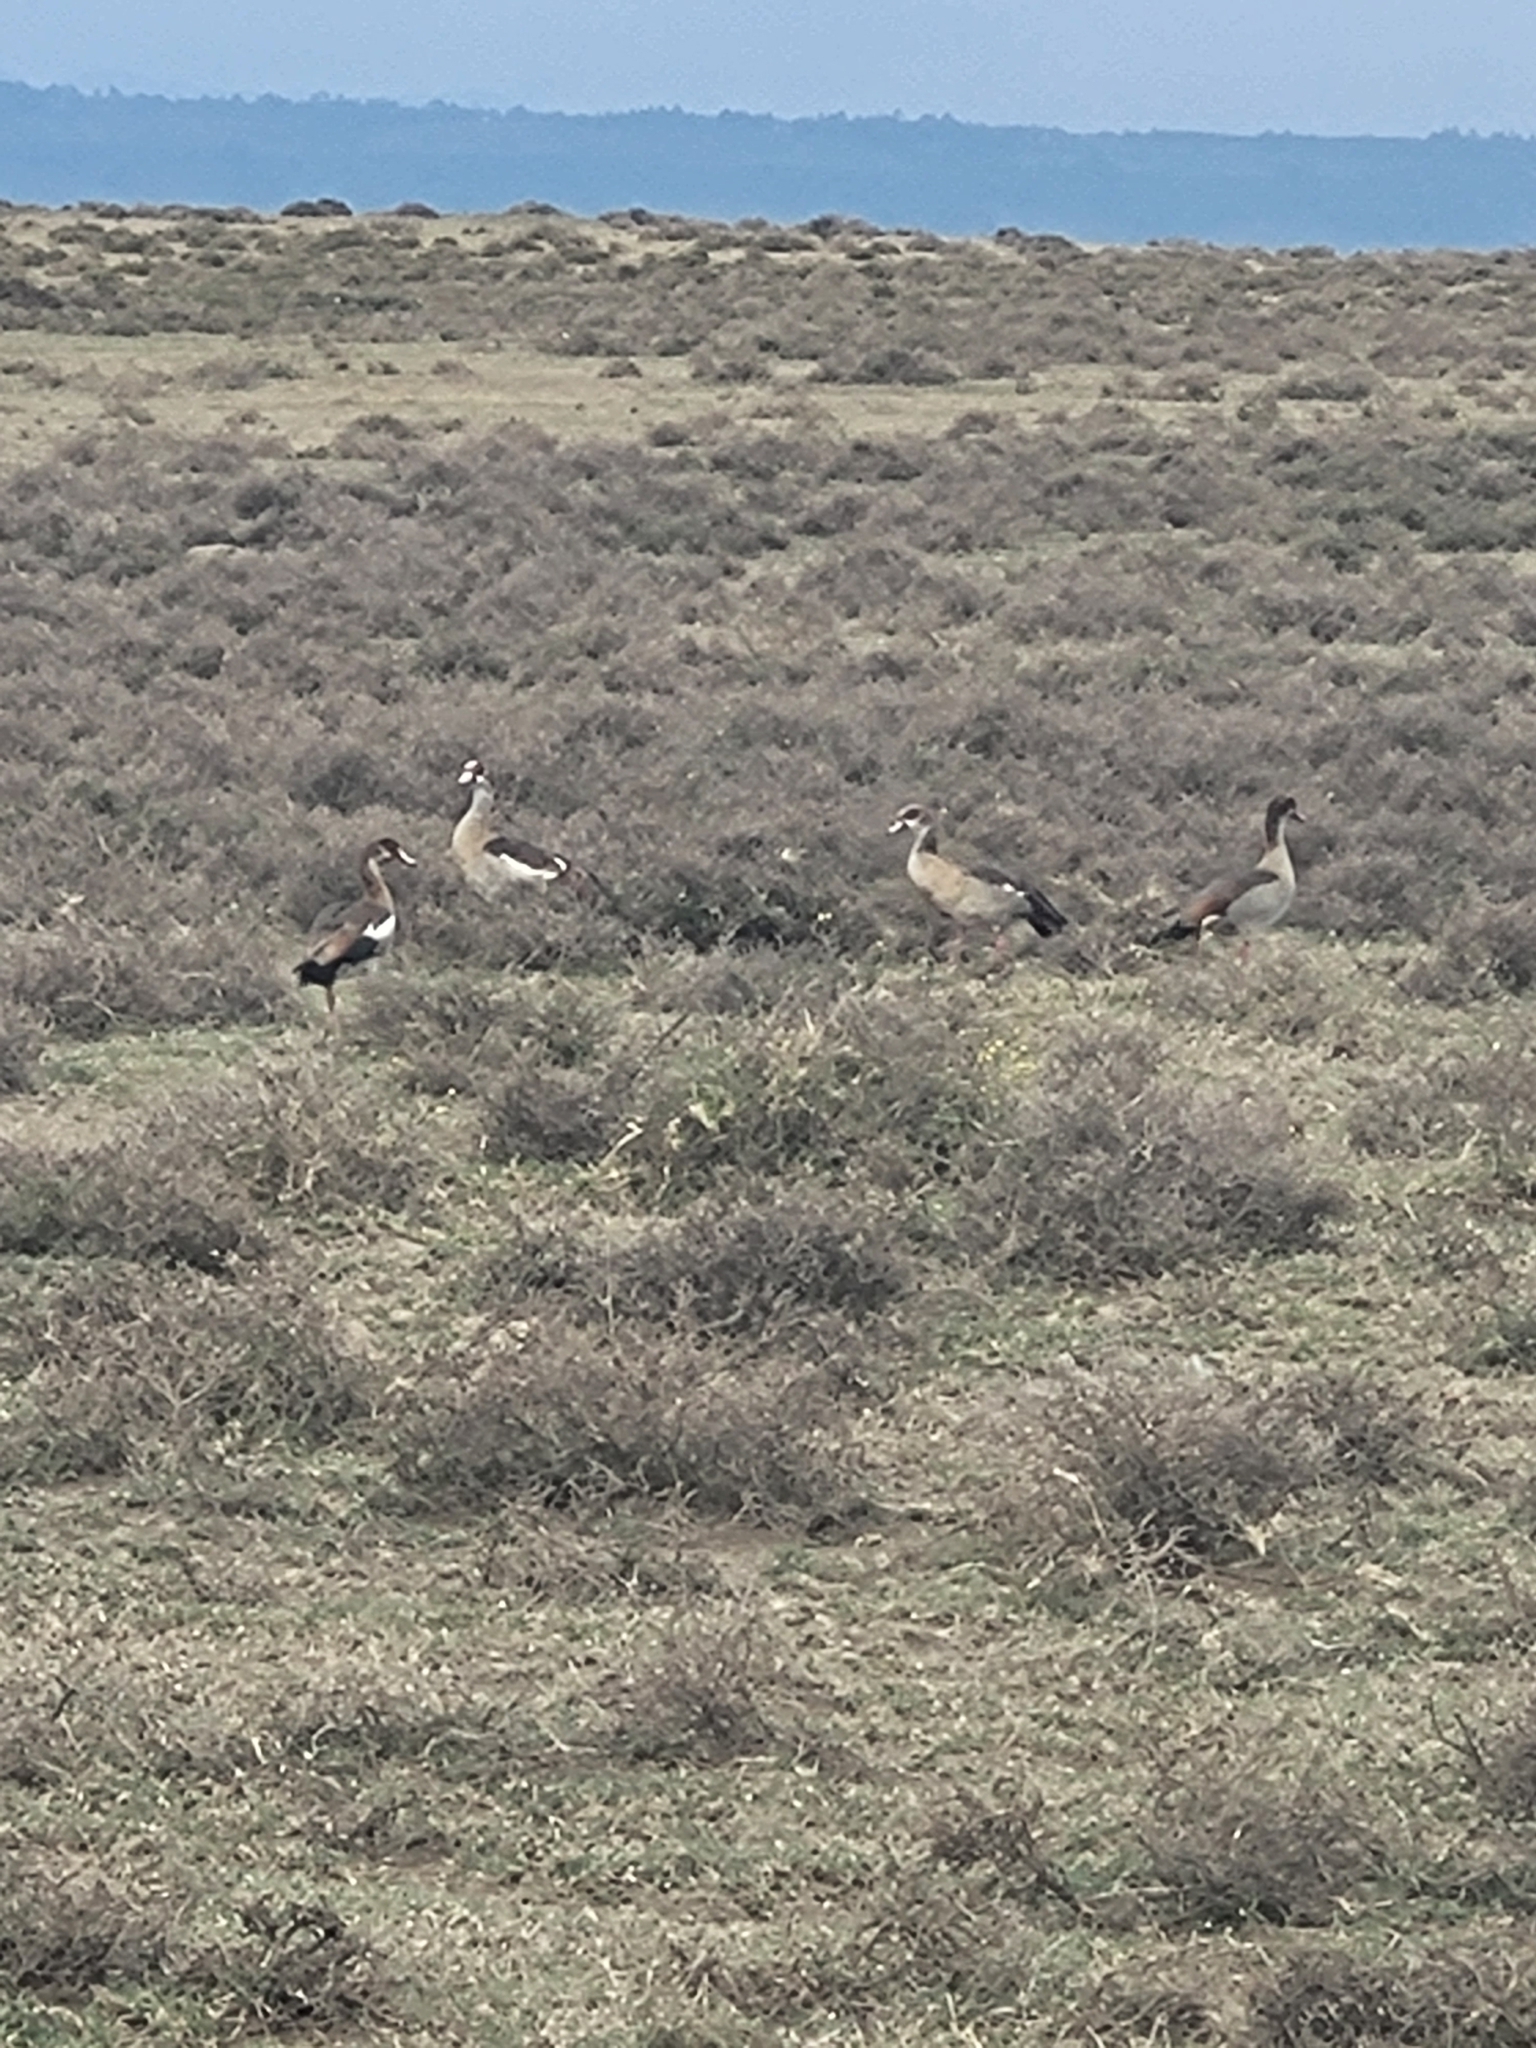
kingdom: Animalia
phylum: Chordata
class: Aves
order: Anseriformes
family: Anatidae
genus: Alopochen
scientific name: Alopochen aegyptiaca
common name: Egyptian goose
